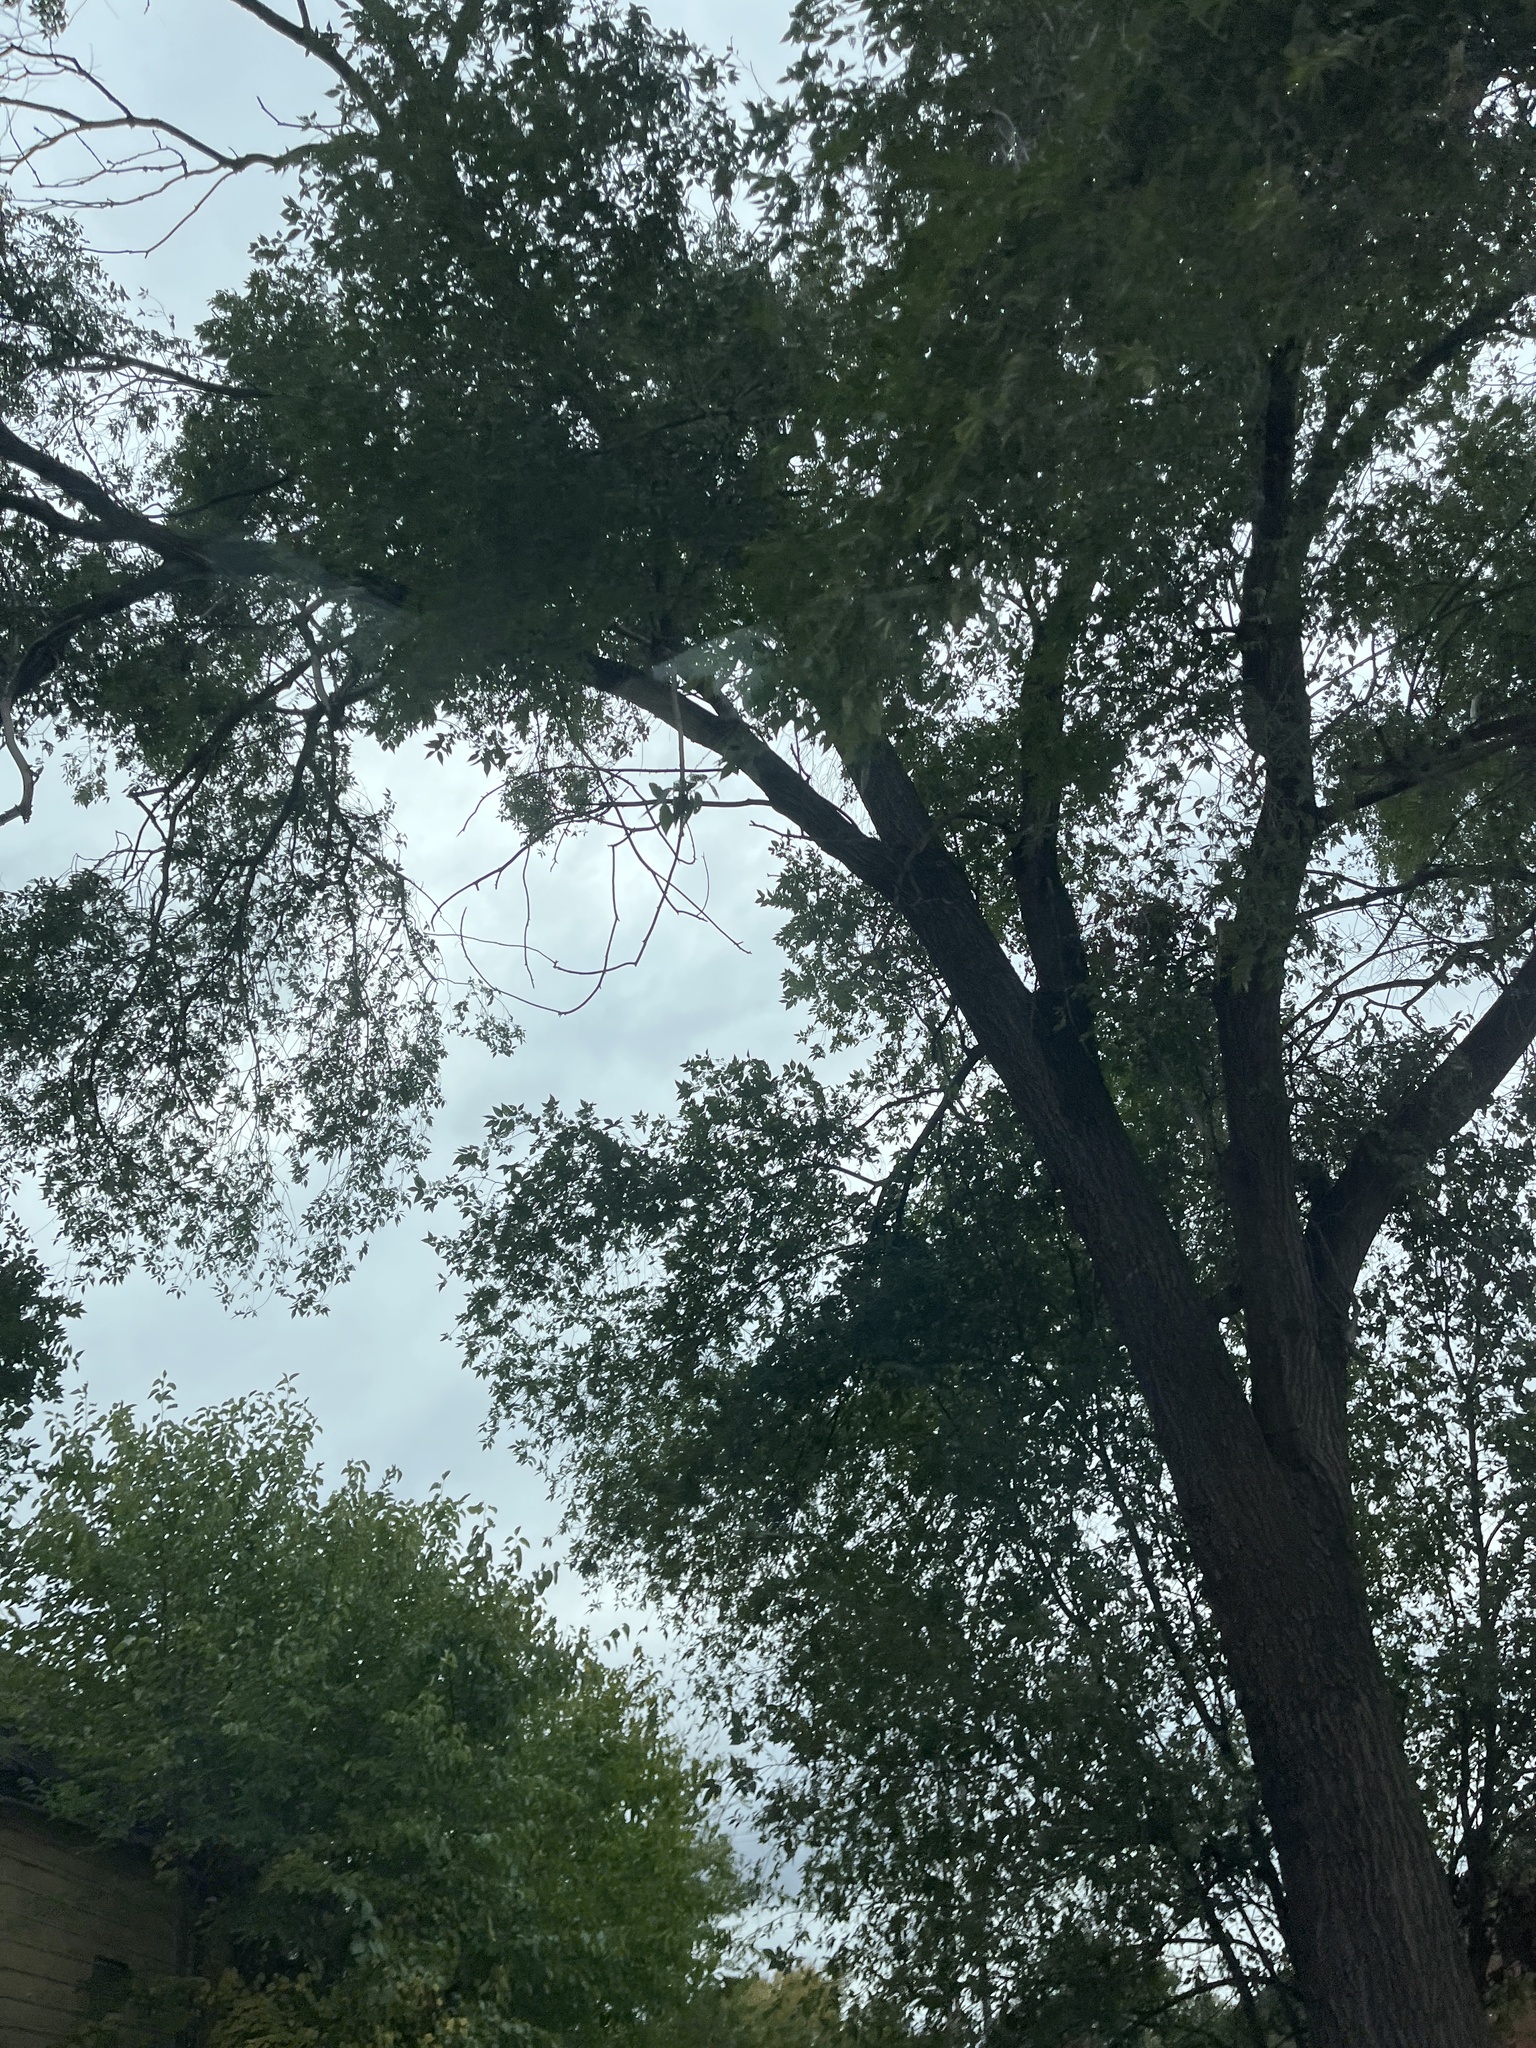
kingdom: Plantae
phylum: Tracheophyta
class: Magnoliopsida
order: Malpighiales
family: Salicaceae
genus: Populus
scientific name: Populus deltoides
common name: Eastern cottonwood
